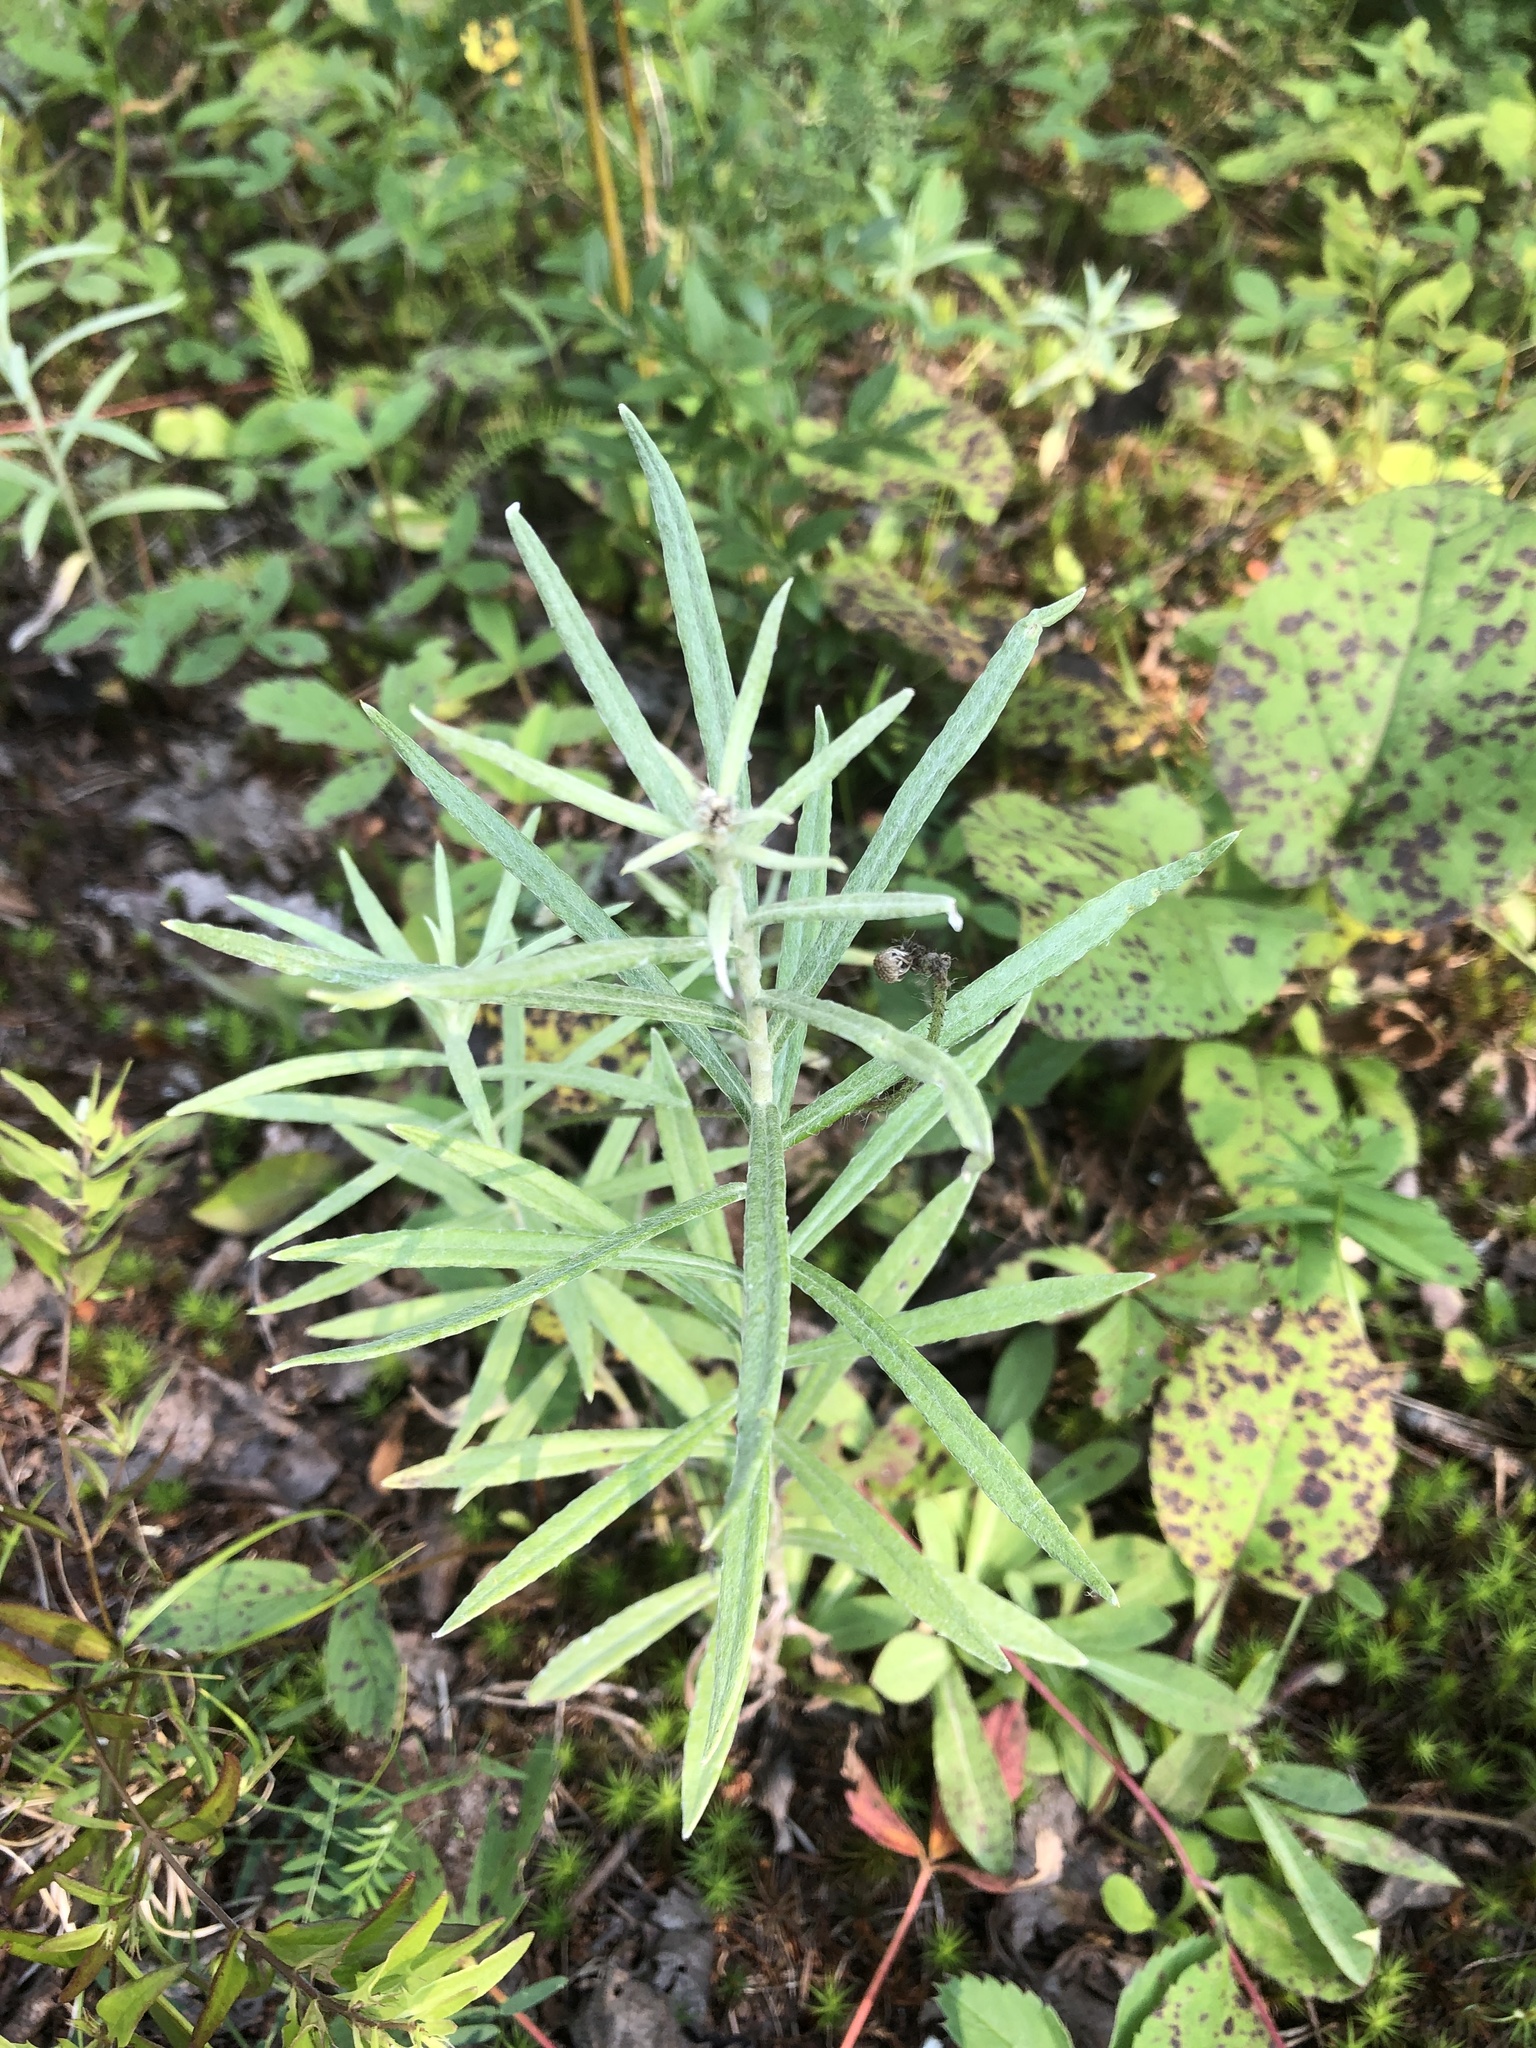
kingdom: Plantae
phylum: Tracheophyta
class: Magnoliopsida
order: Asterales
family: Asteraceae
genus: Anaphalis
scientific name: Anaphalis margaritacea
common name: Pearly everlasting
